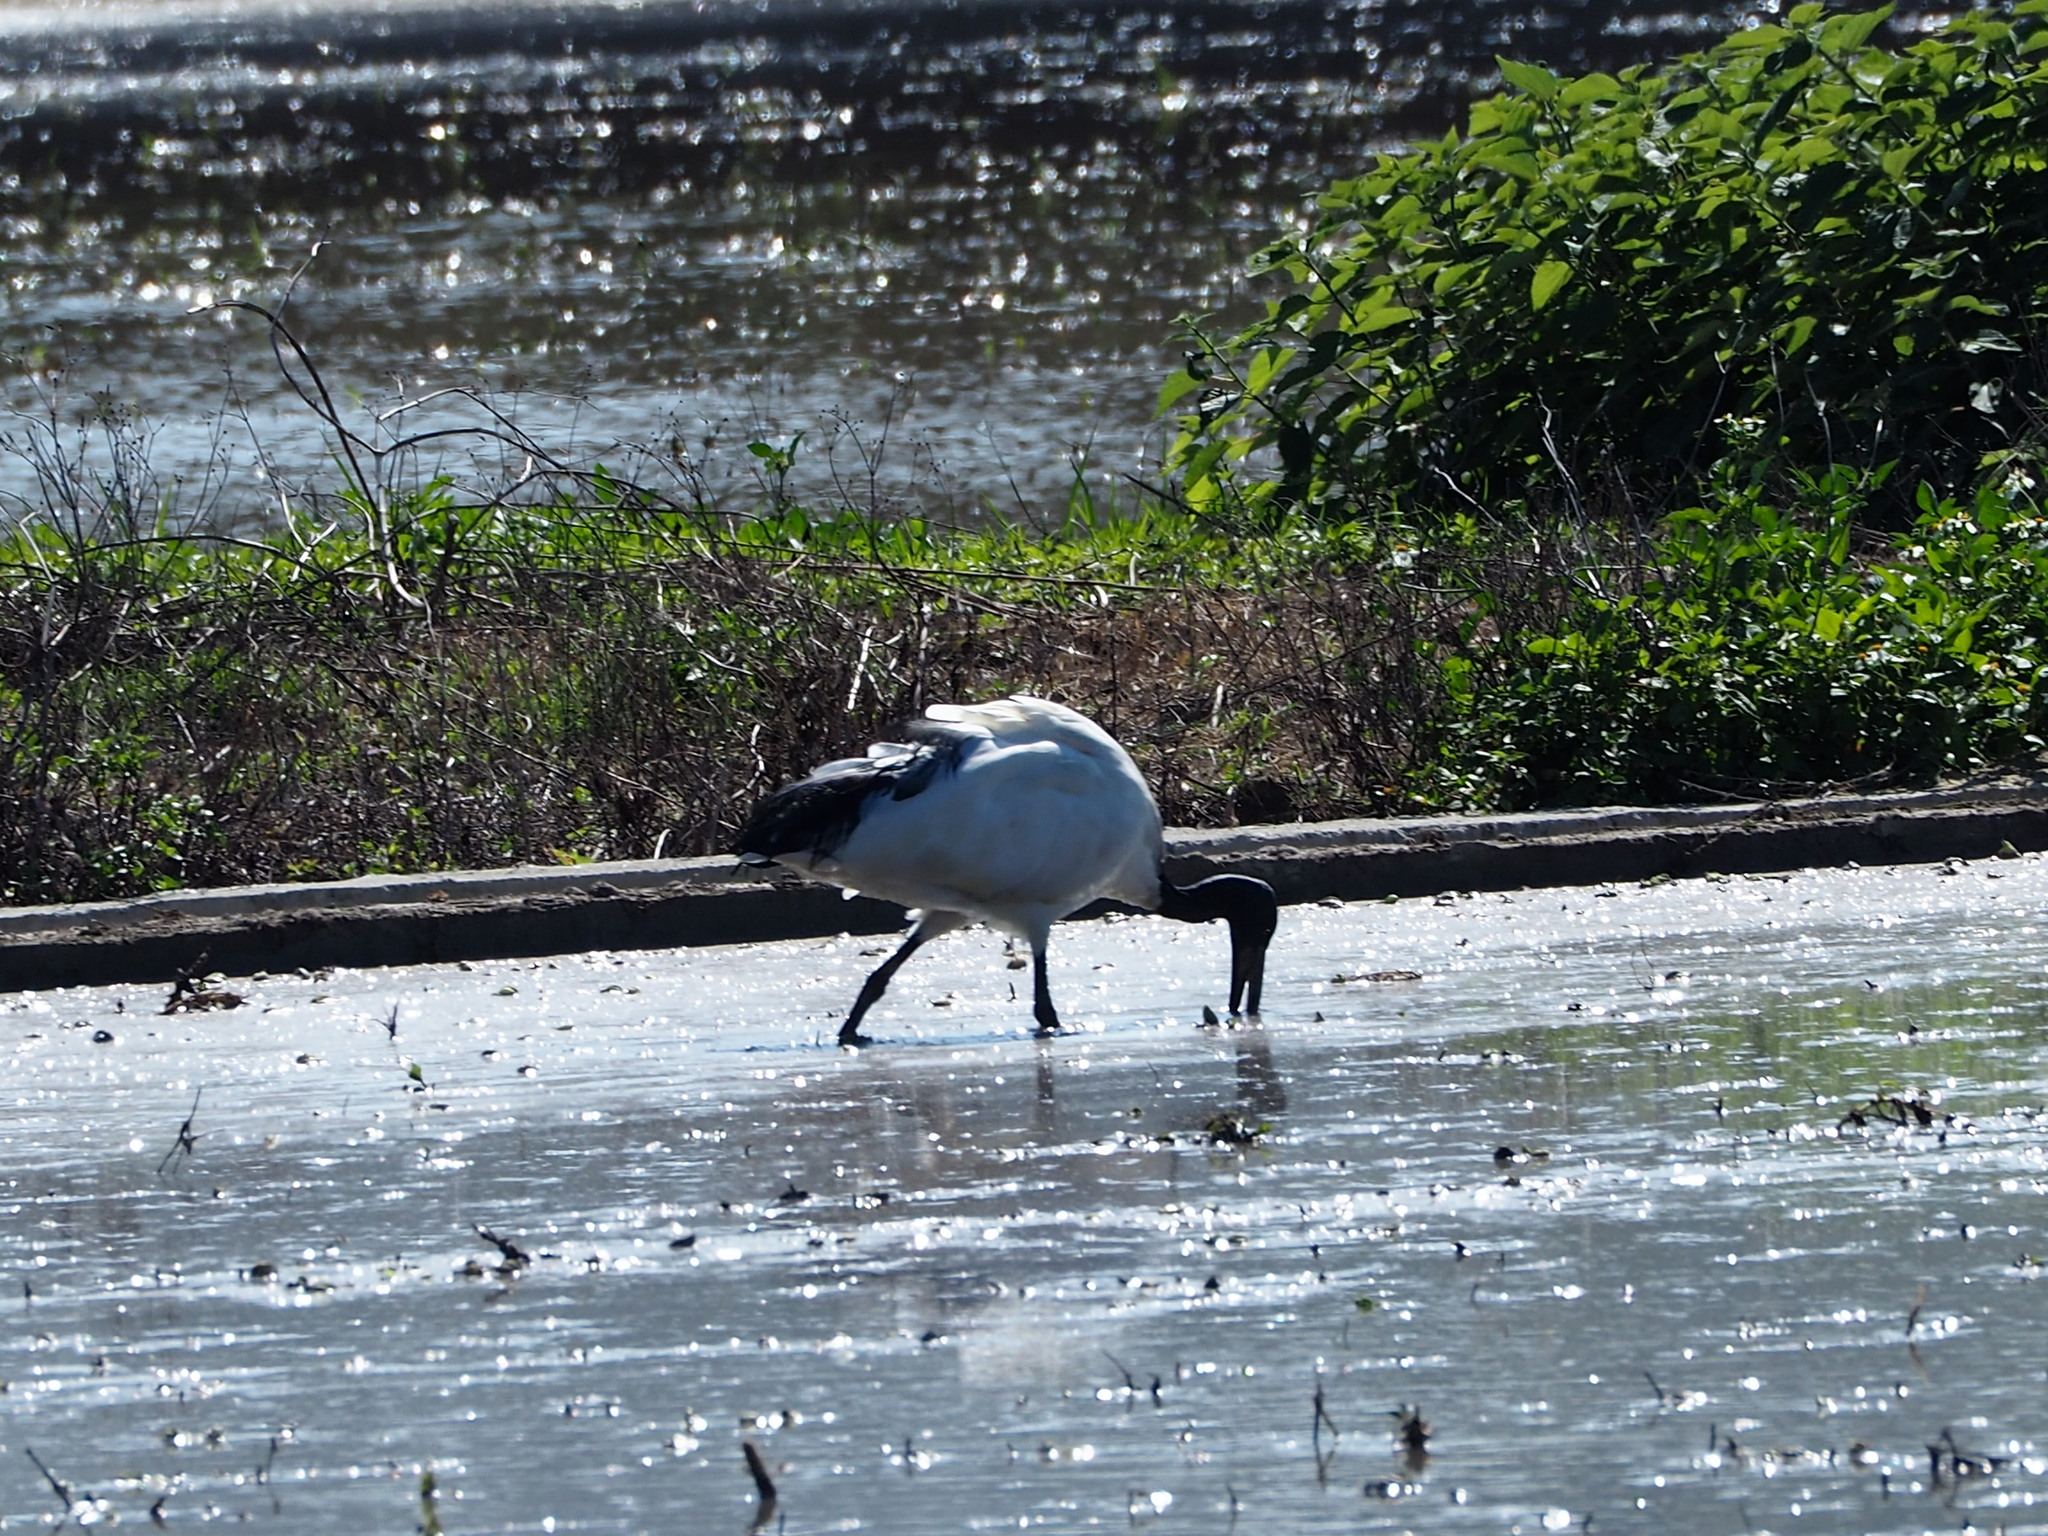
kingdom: Animalia
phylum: Chordata
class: Aves
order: Pelecaniformes
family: Threskiornithidae
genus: Threskiornis
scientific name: Threskiornis aethiopicus
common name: Sacred ibis
